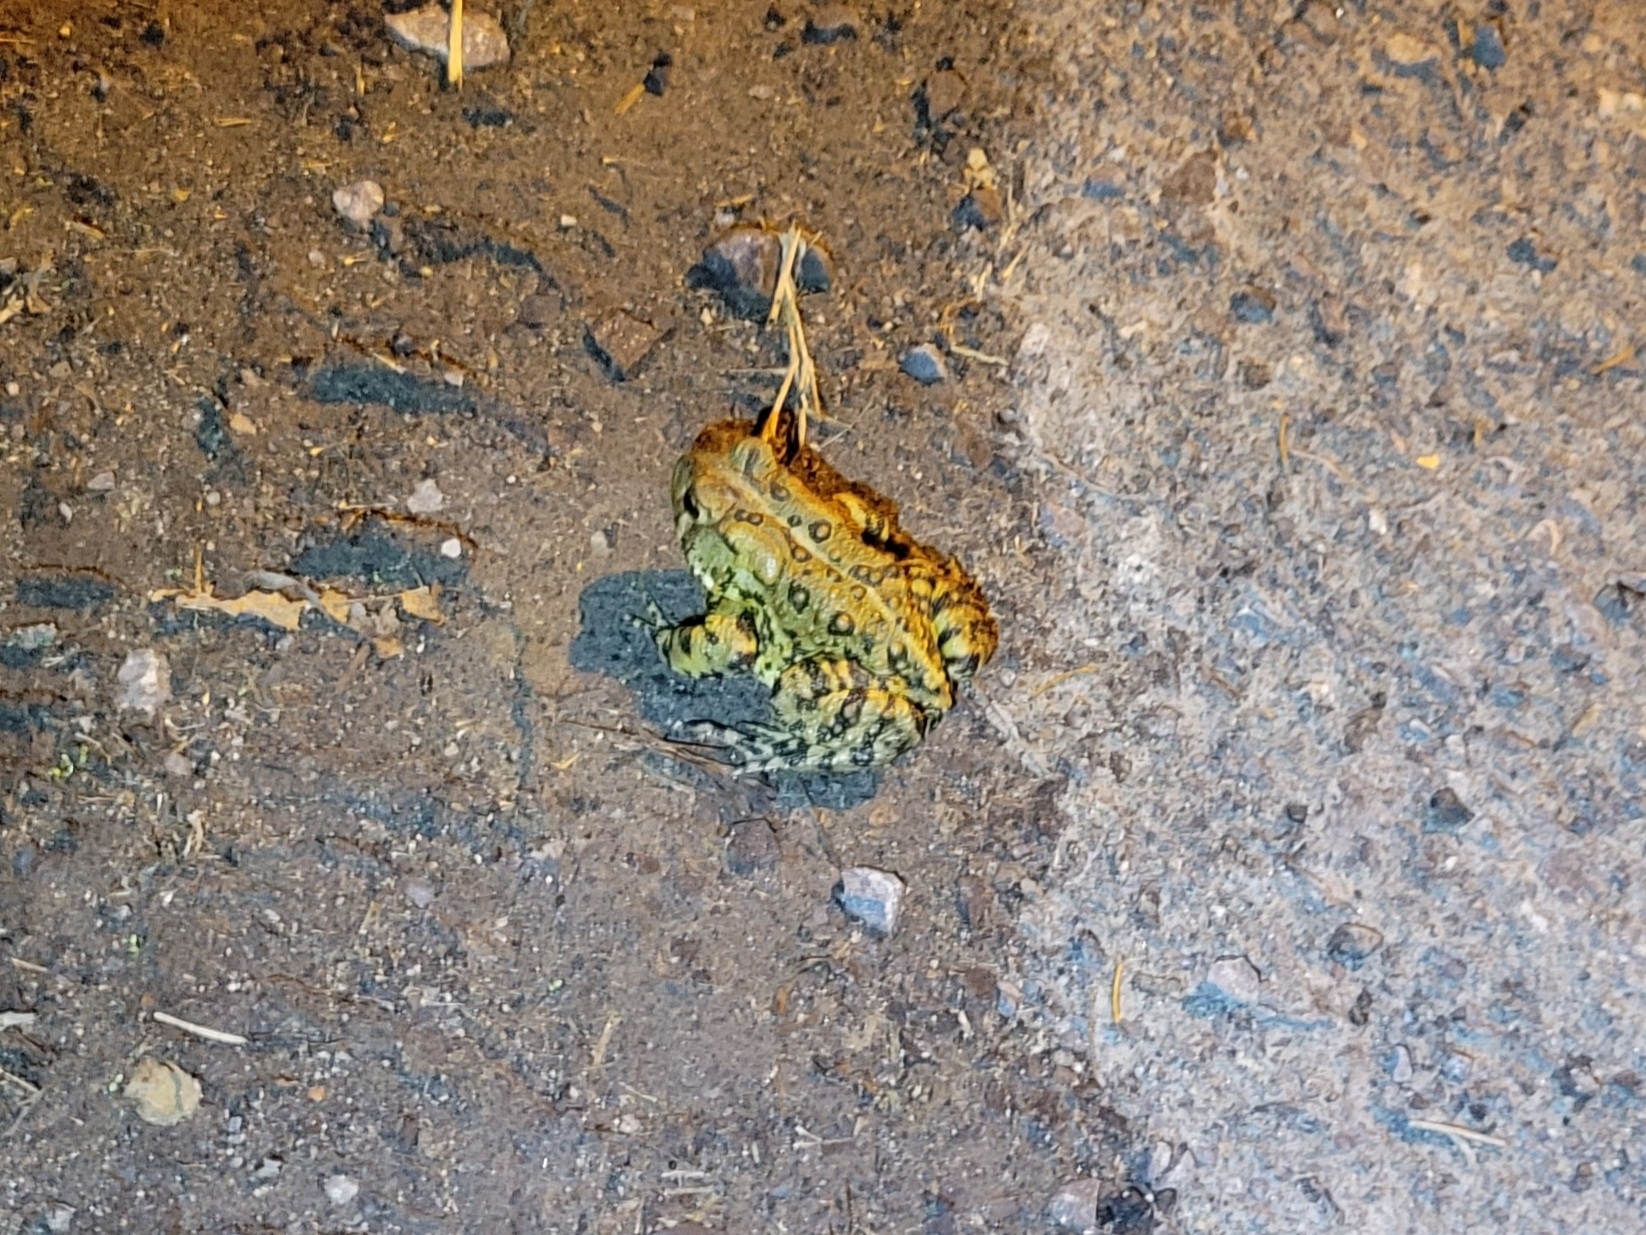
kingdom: Animalia
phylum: Chordata
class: Amphibia
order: Anura
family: Bufonidae
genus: Anaxyrus
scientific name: Anaxyrus americanus
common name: American toad
